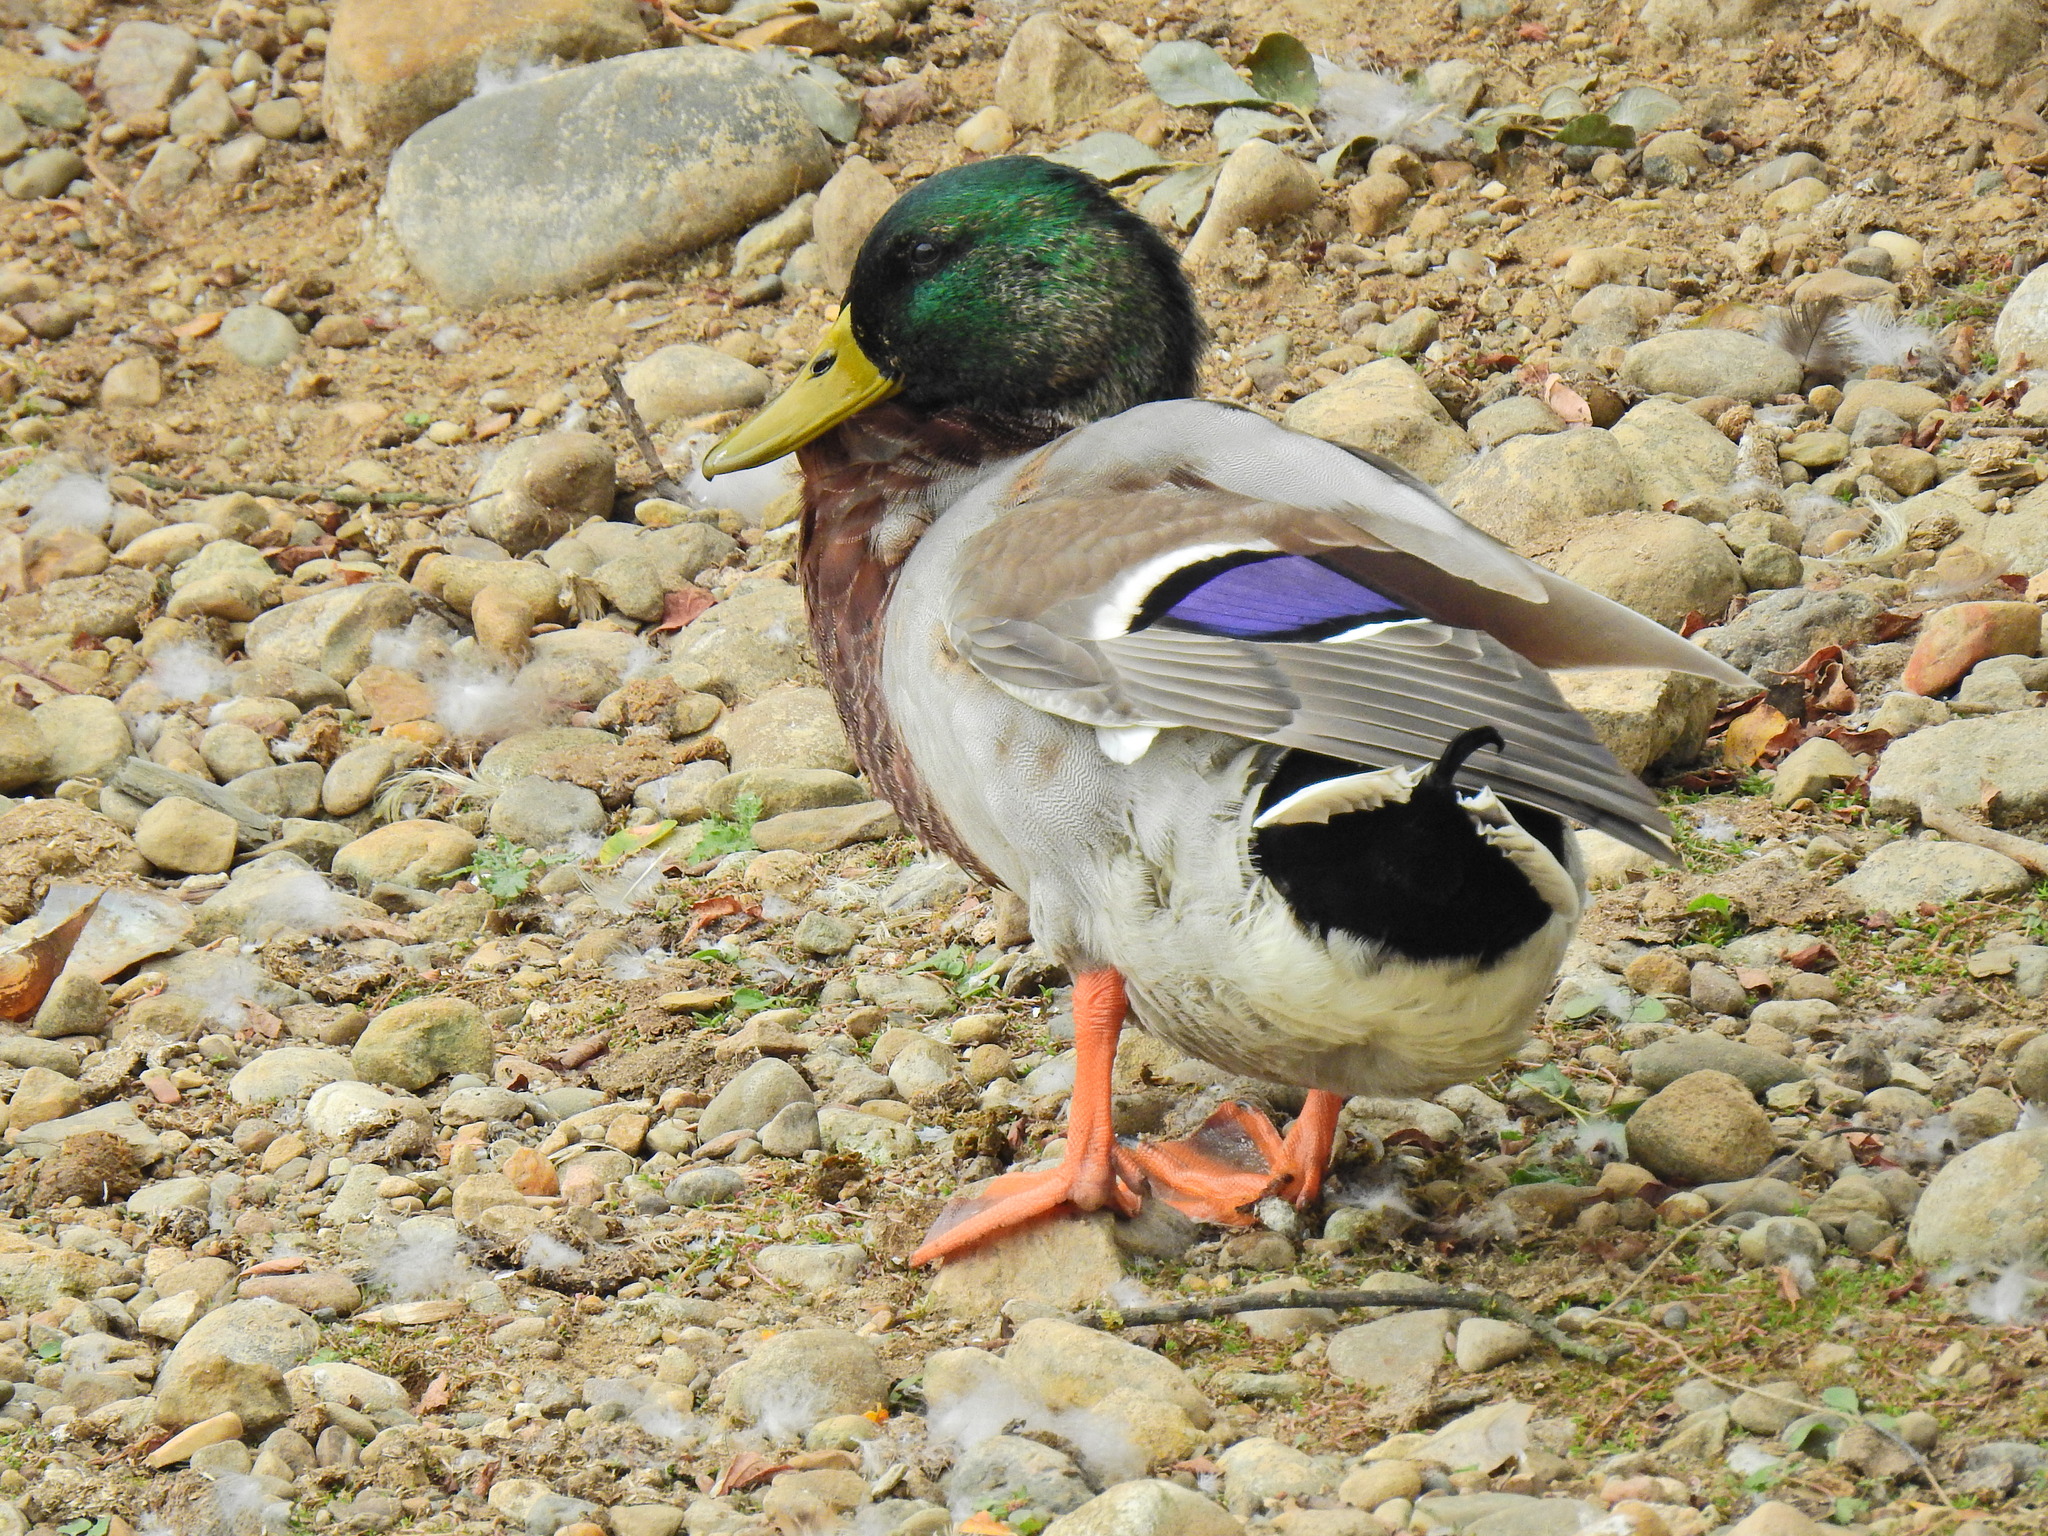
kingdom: Animalia
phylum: Chordata
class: Aves
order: Anseriformes
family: Anatidae
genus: Anas
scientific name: Anas platyrhynchos
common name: Mallard
